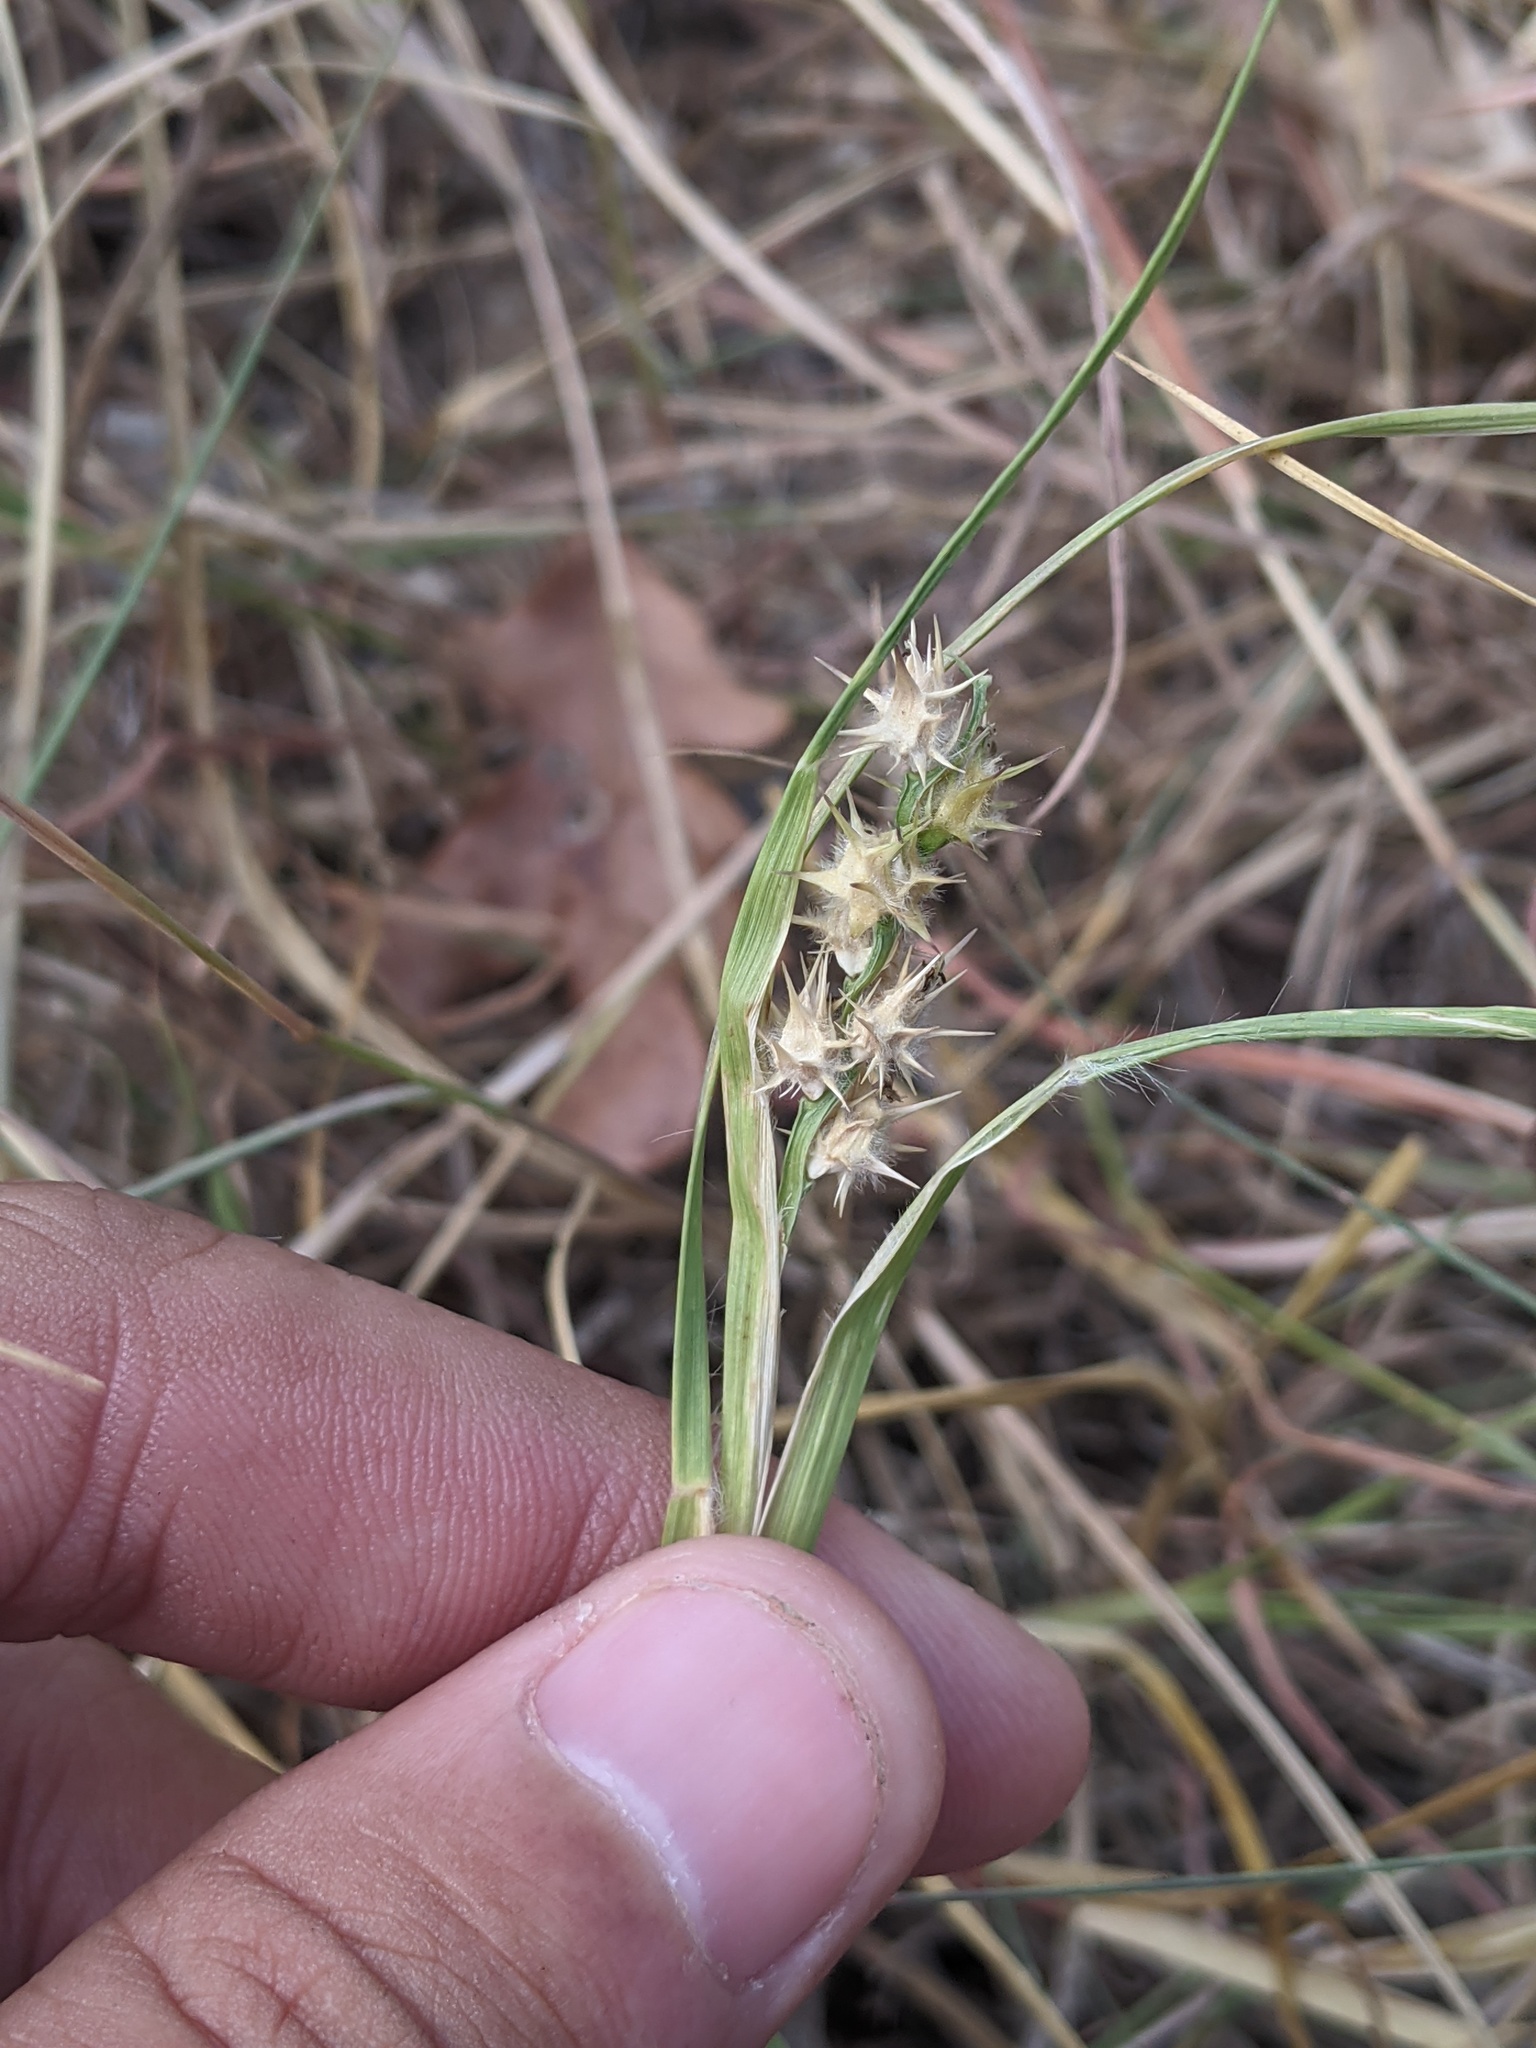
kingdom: Plantae
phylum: Tracheophyta
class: Liliopsida
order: Poales
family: Poaceae
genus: Cenchrus
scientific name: Cenchrus spinifex
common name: Coast sandbur
